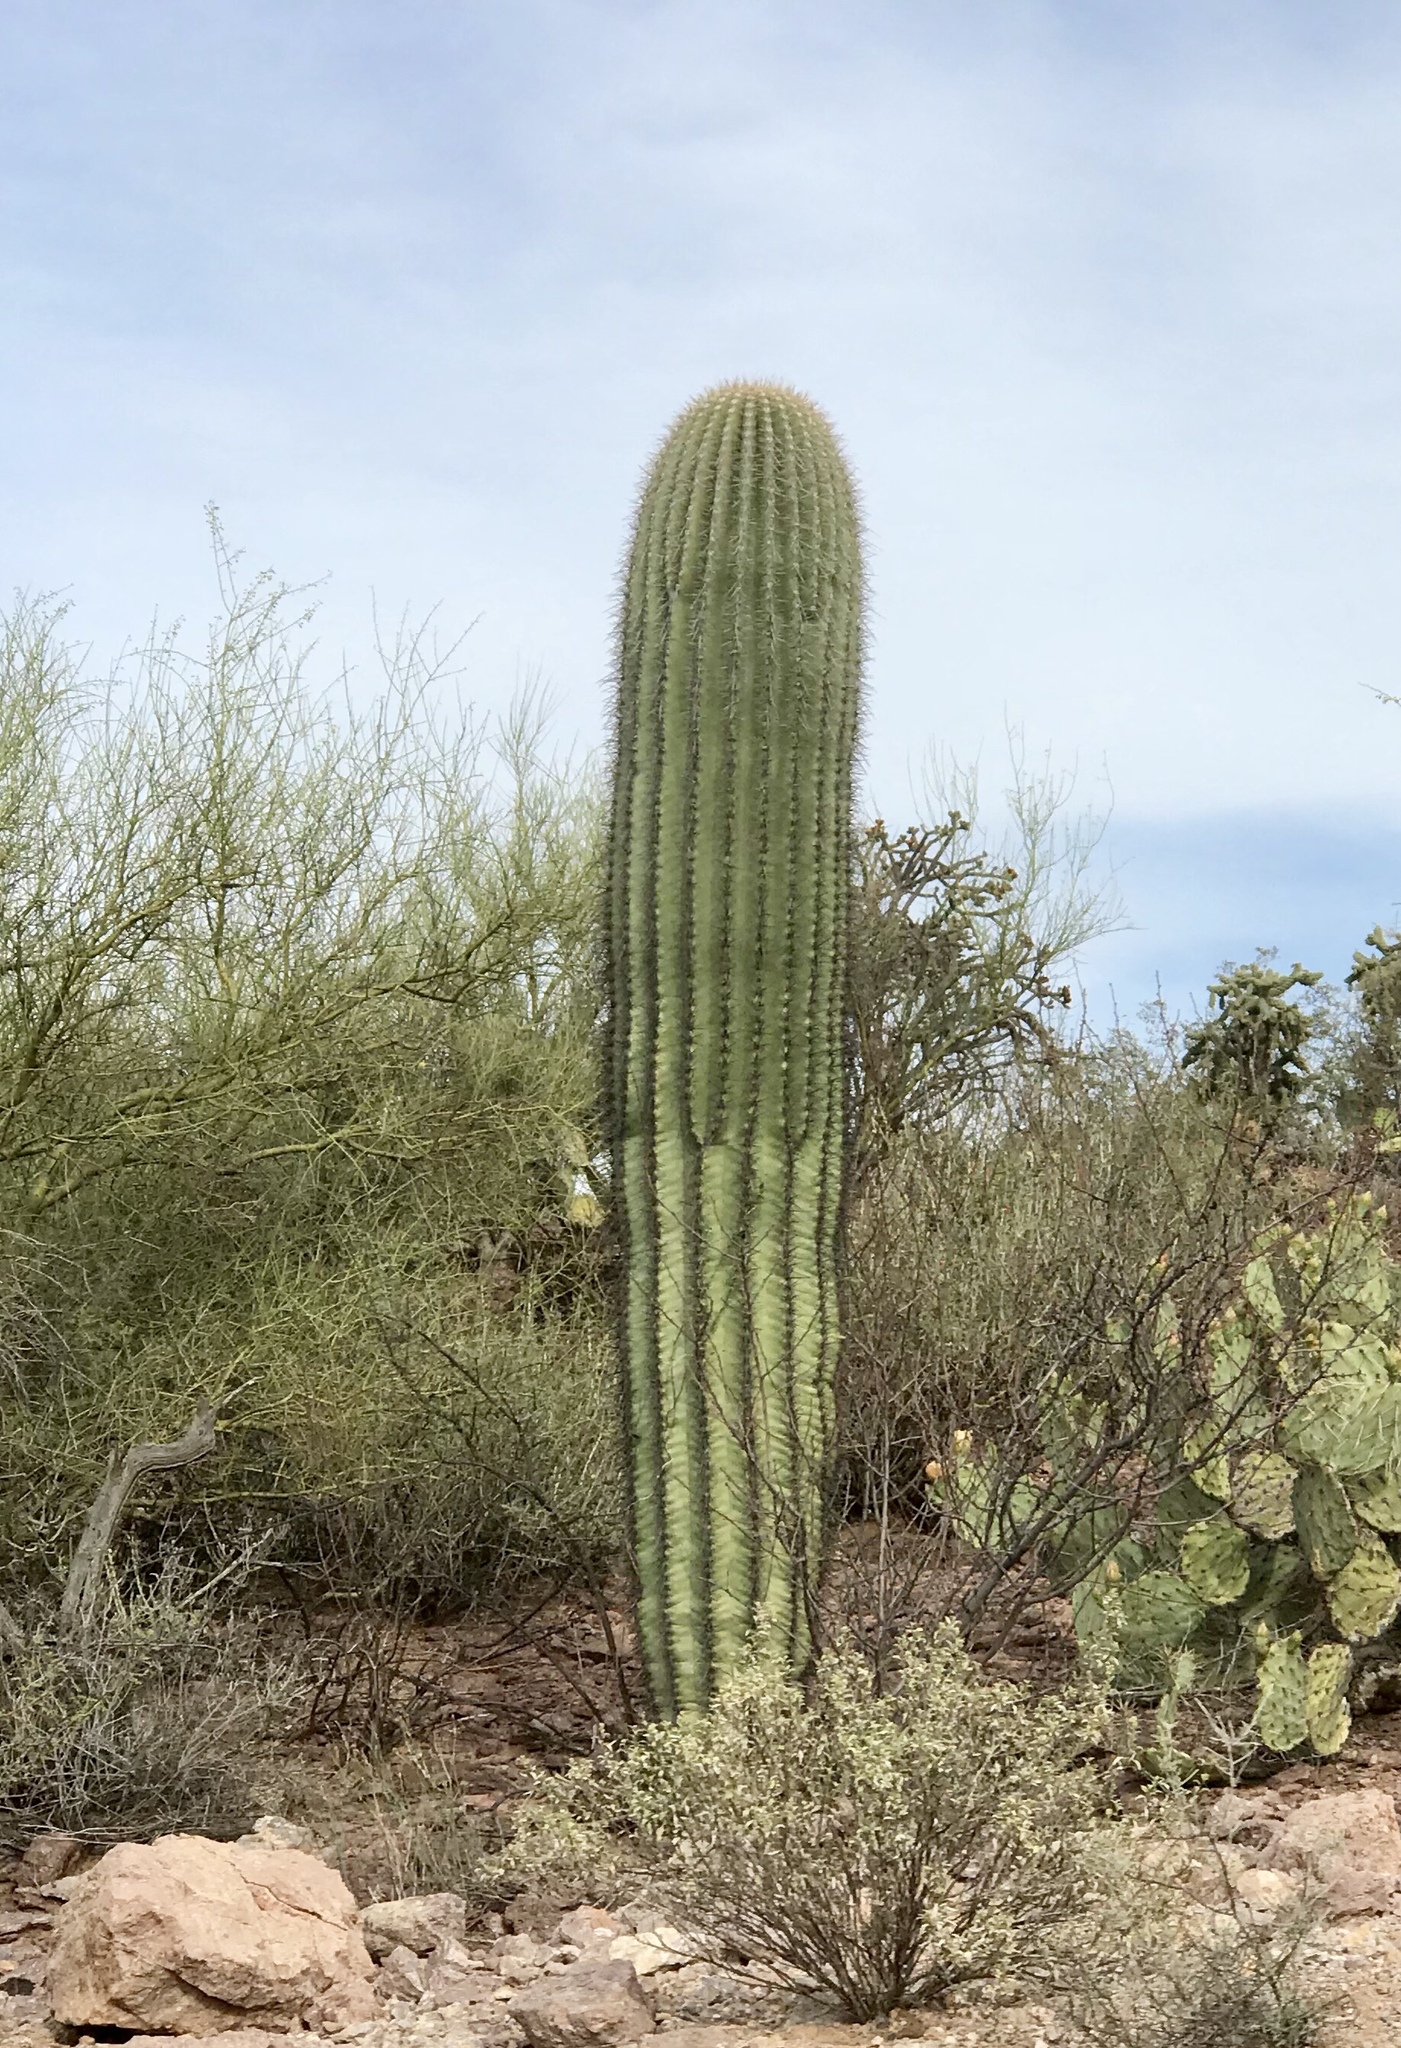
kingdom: Plantae
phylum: Tracheophyta
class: Magnoliopsida
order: Caryophyllales
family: Cactaceae
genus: Carnegiea
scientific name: Carnegiea gigantea
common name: Saguaro
